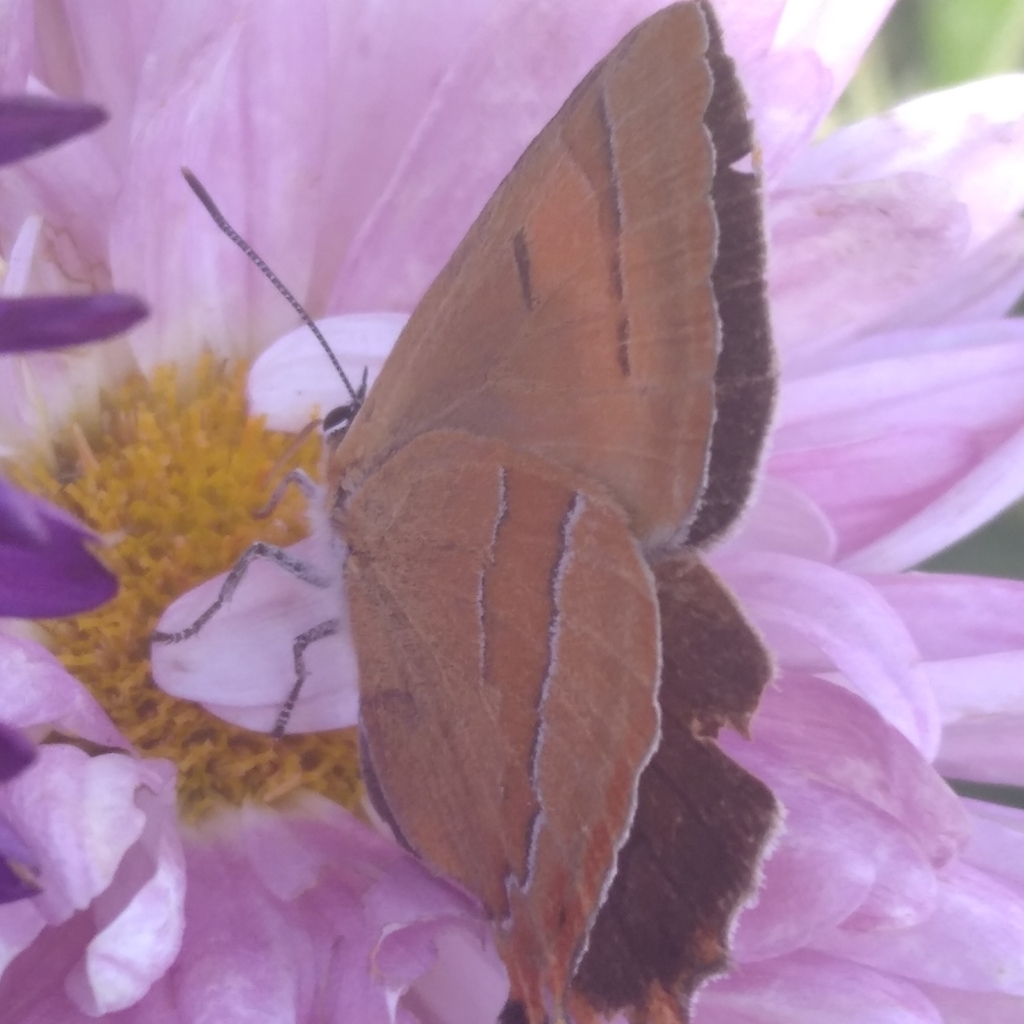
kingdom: Animalia
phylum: Arthropoda
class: Insecta
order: Lepidoptera
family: Lycaenidae
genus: Thecla
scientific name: Thecla betulae
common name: Brown hairstreak
